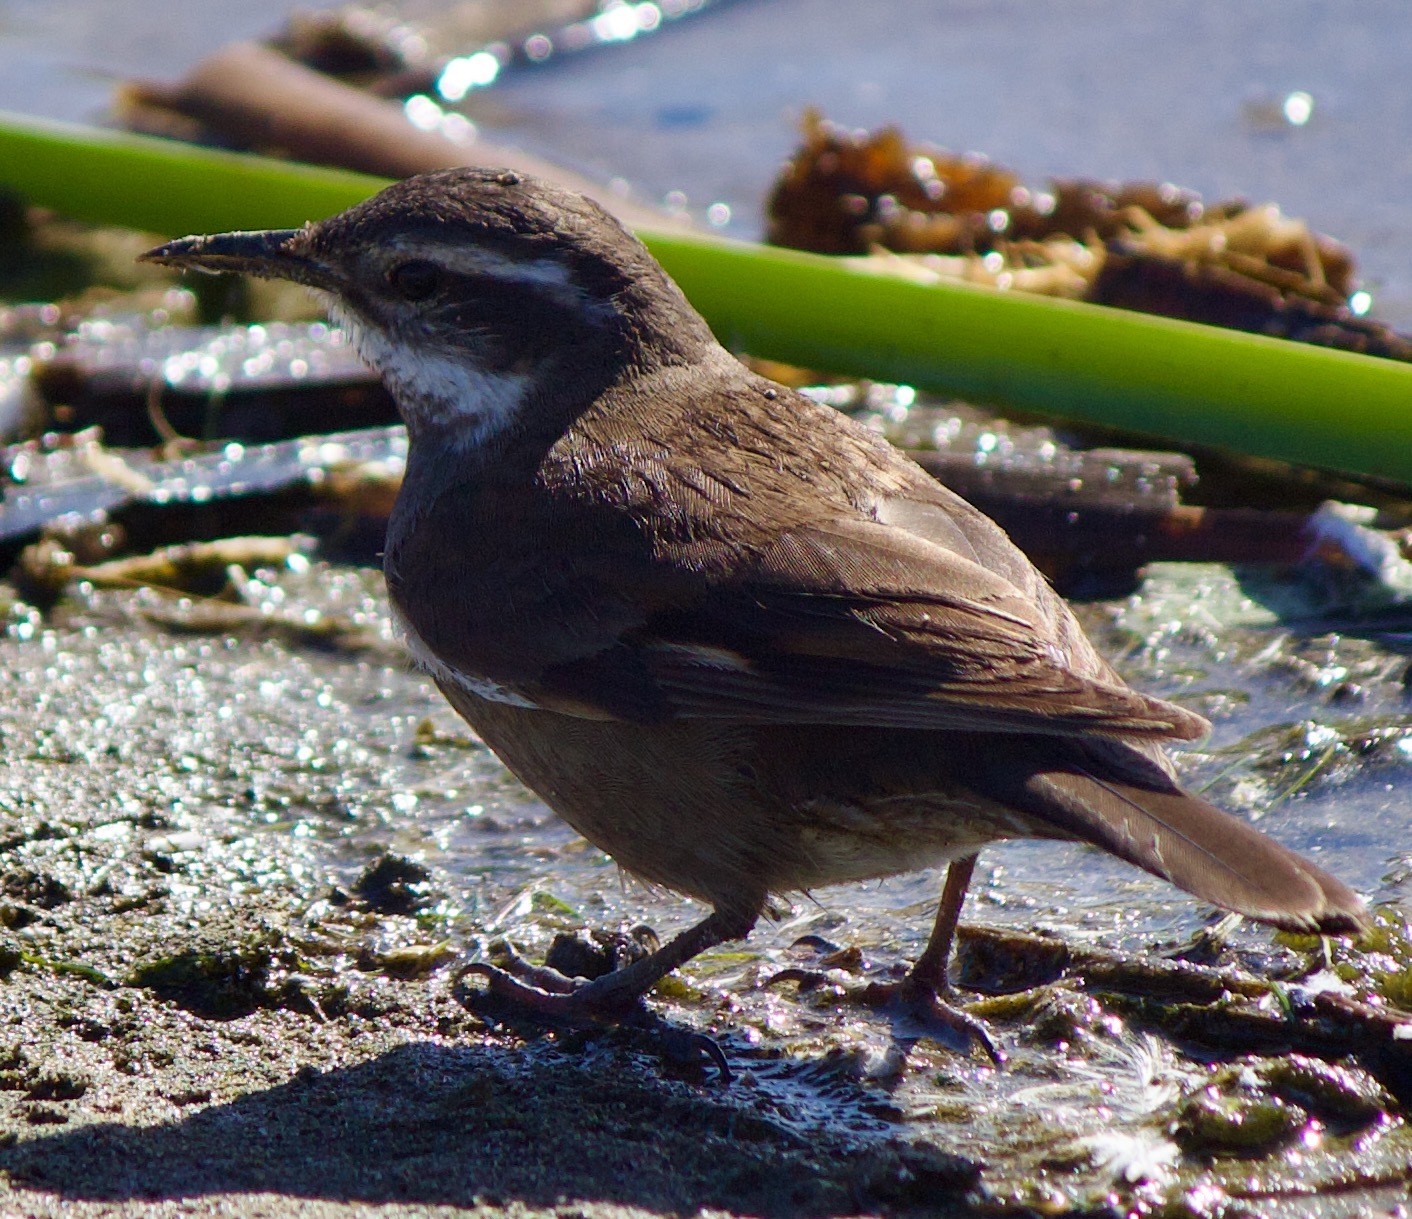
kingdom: Animalia
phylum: Chordata
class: Aves
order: Passeriformes
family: Furnariidae
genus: Cinclodes
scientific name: Cinclodes fuscus
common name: Buff-winged cinclodes
